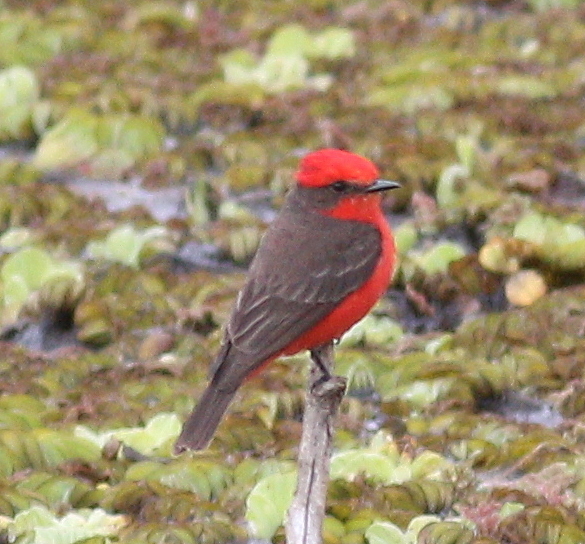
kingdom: Animalia
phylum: Chordata
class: Aves
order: Passeriformes
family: Tyrannidae
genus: Pyrocephalus
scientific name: Pyrocephalus rubinus
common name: Vermilion flycatcher
